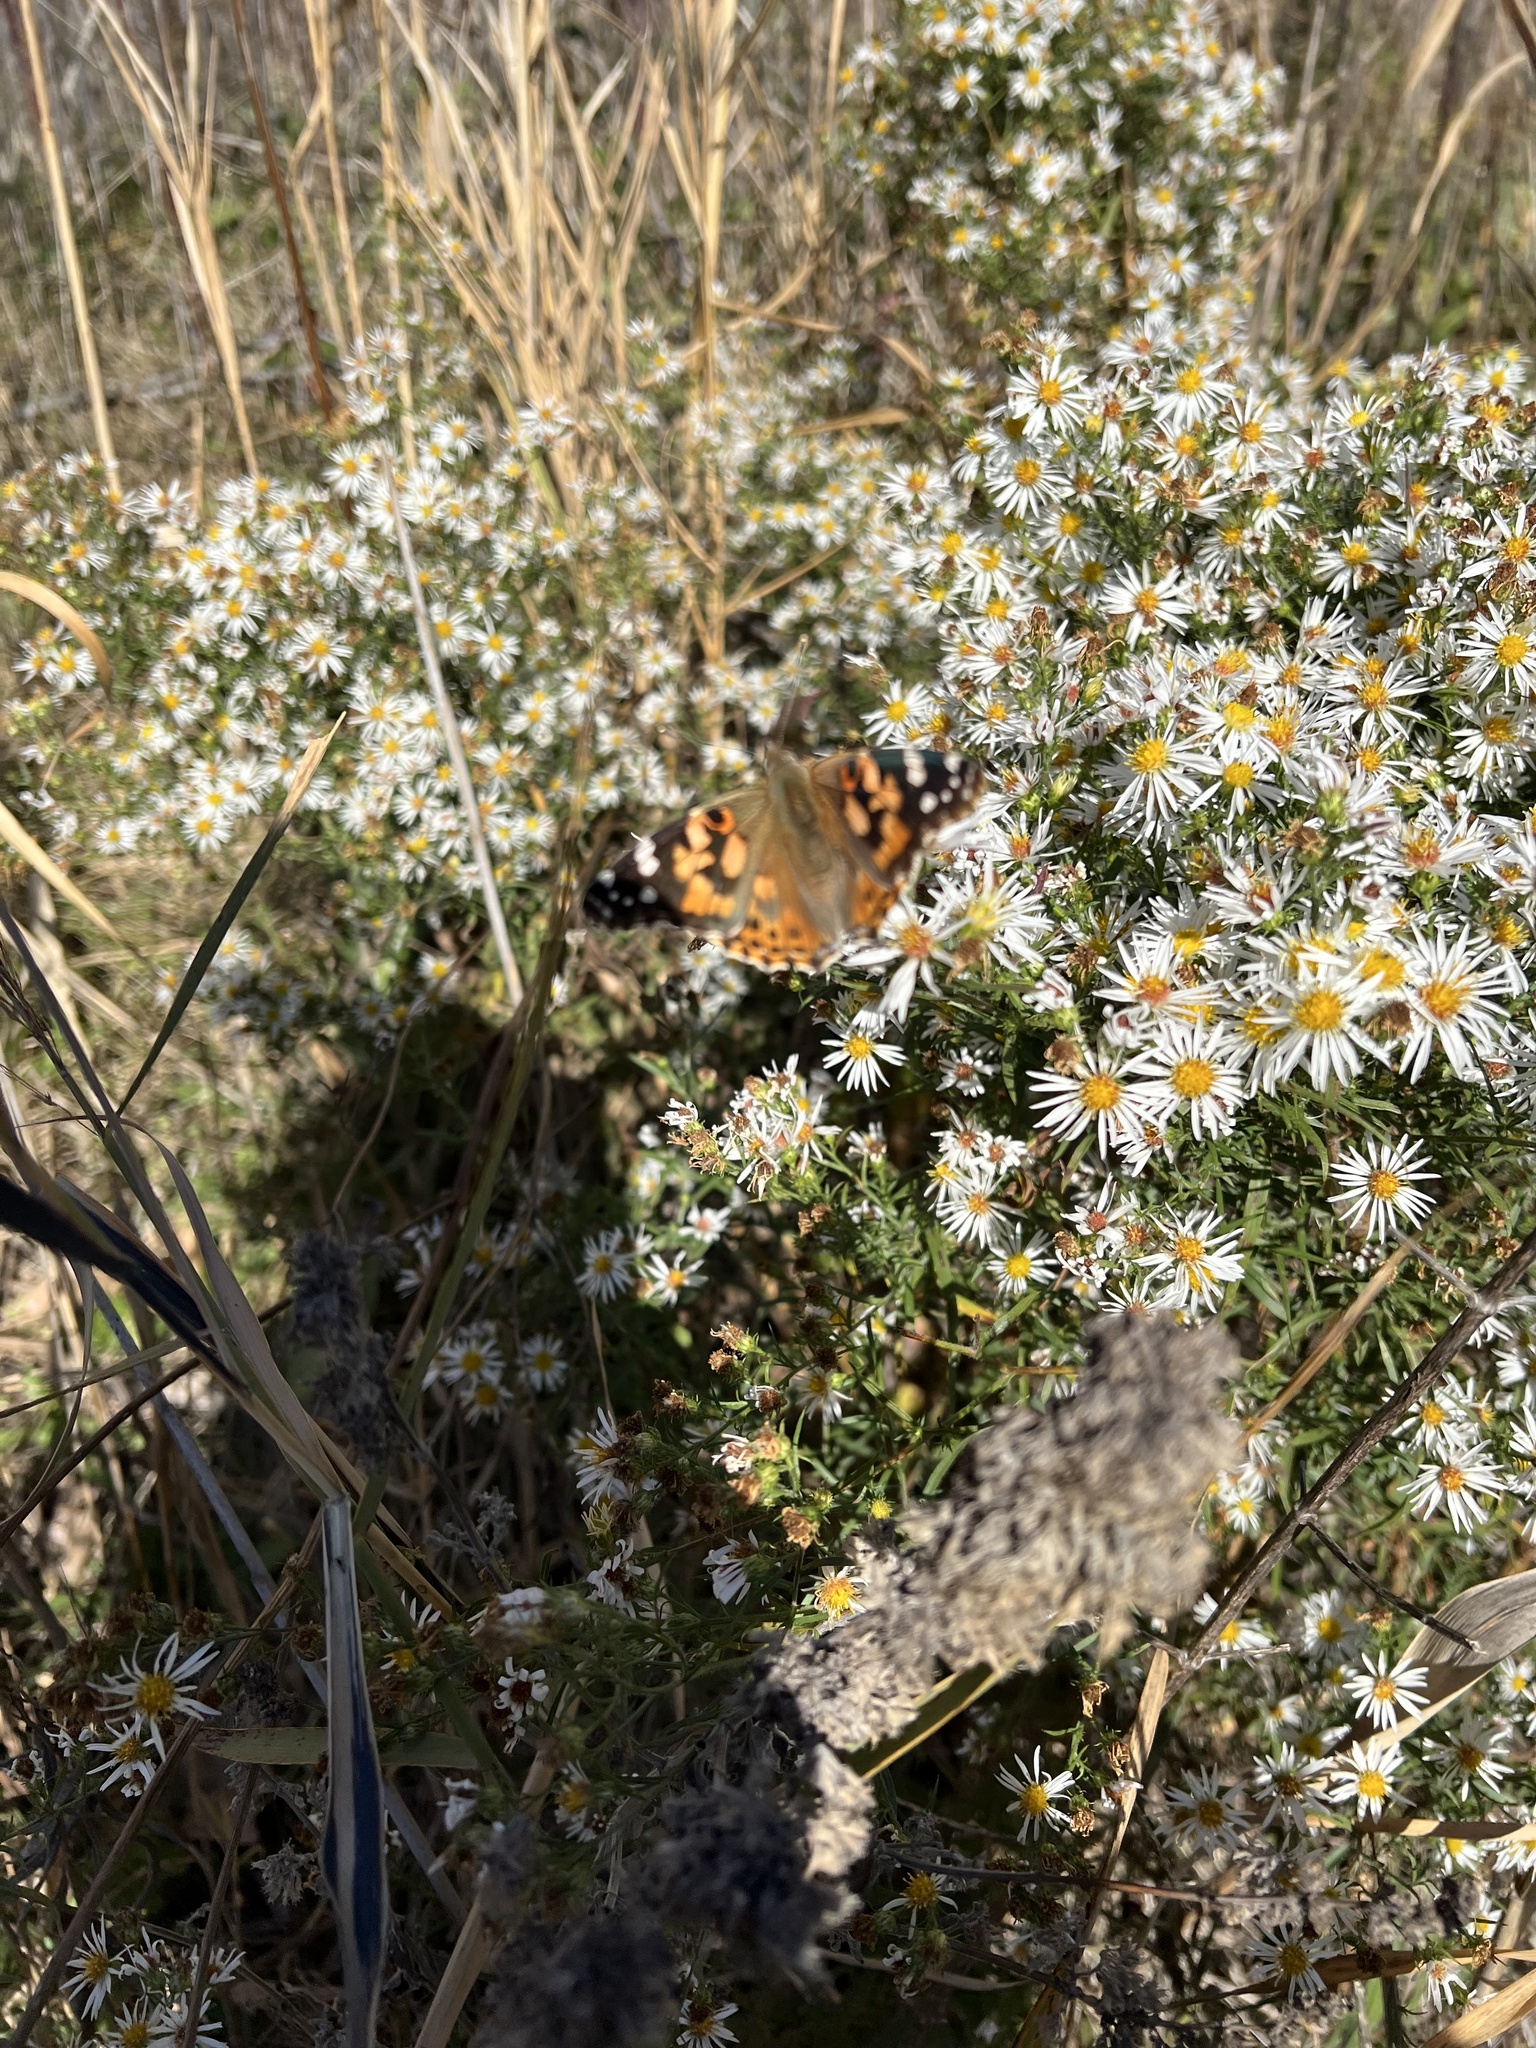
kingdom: Animalia
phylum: Arthropoda
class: Insecta
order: Lepidoptera
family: Nymphalidae
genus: Vanessa
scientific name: Vanessa cardui
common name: Painted lady
